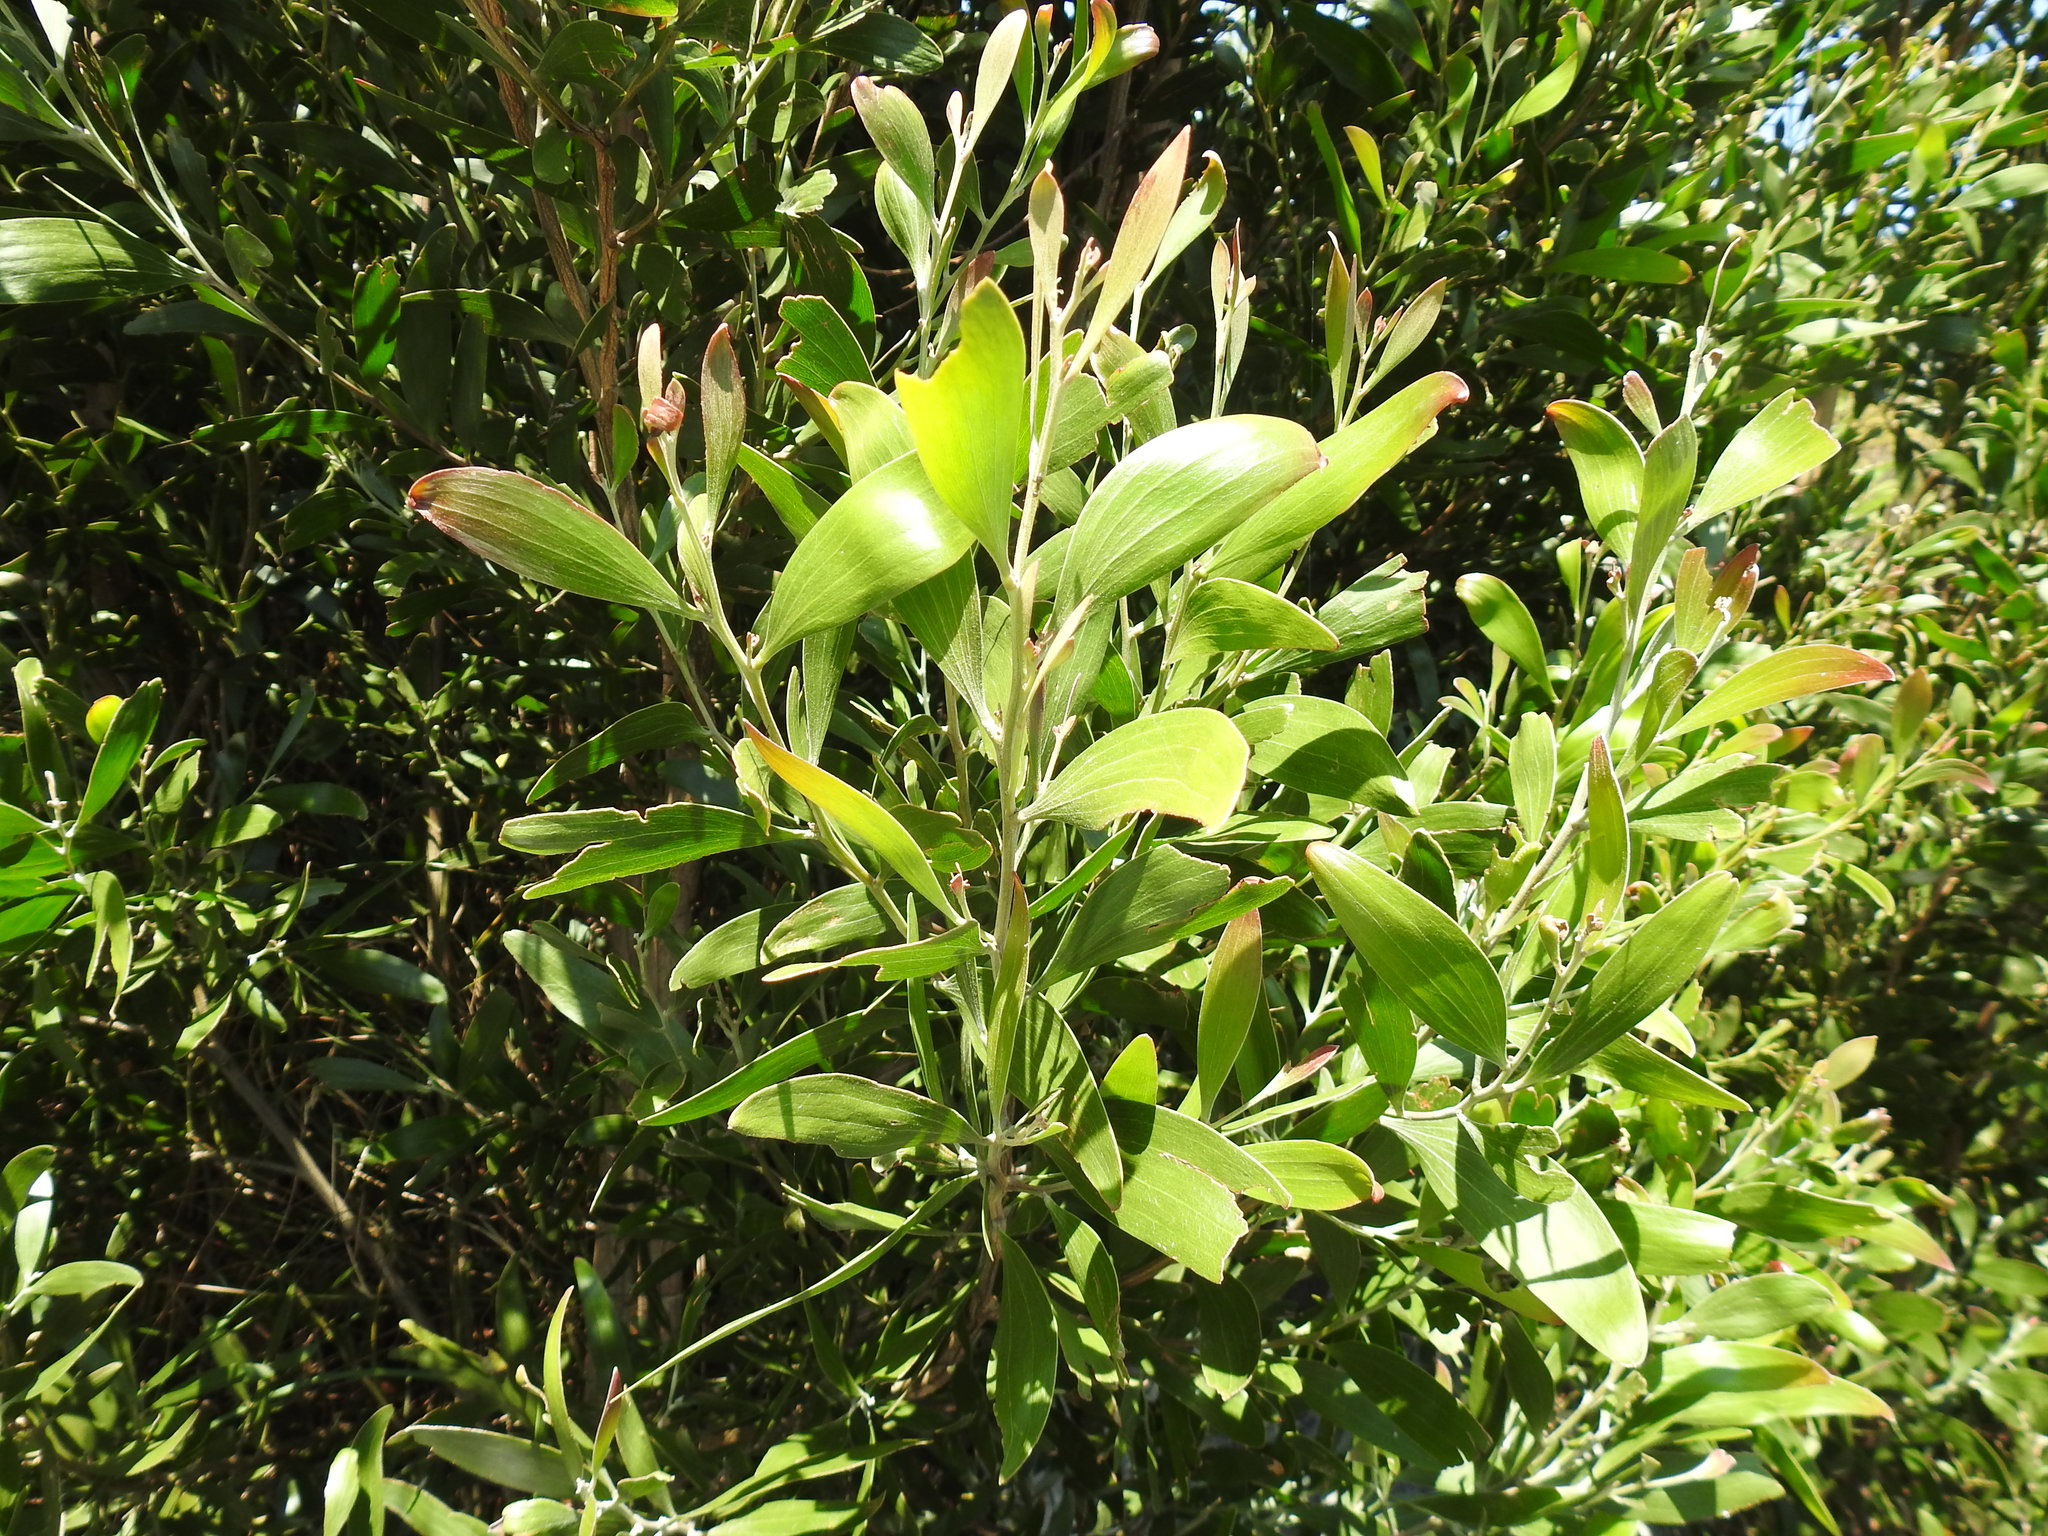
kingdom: Plantae
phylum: Tracheophyta
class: Magnoliopsida
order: Fabales
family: Fabaceae
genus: Acacia
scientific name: Acacia melanoxylon
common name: Blackwood
